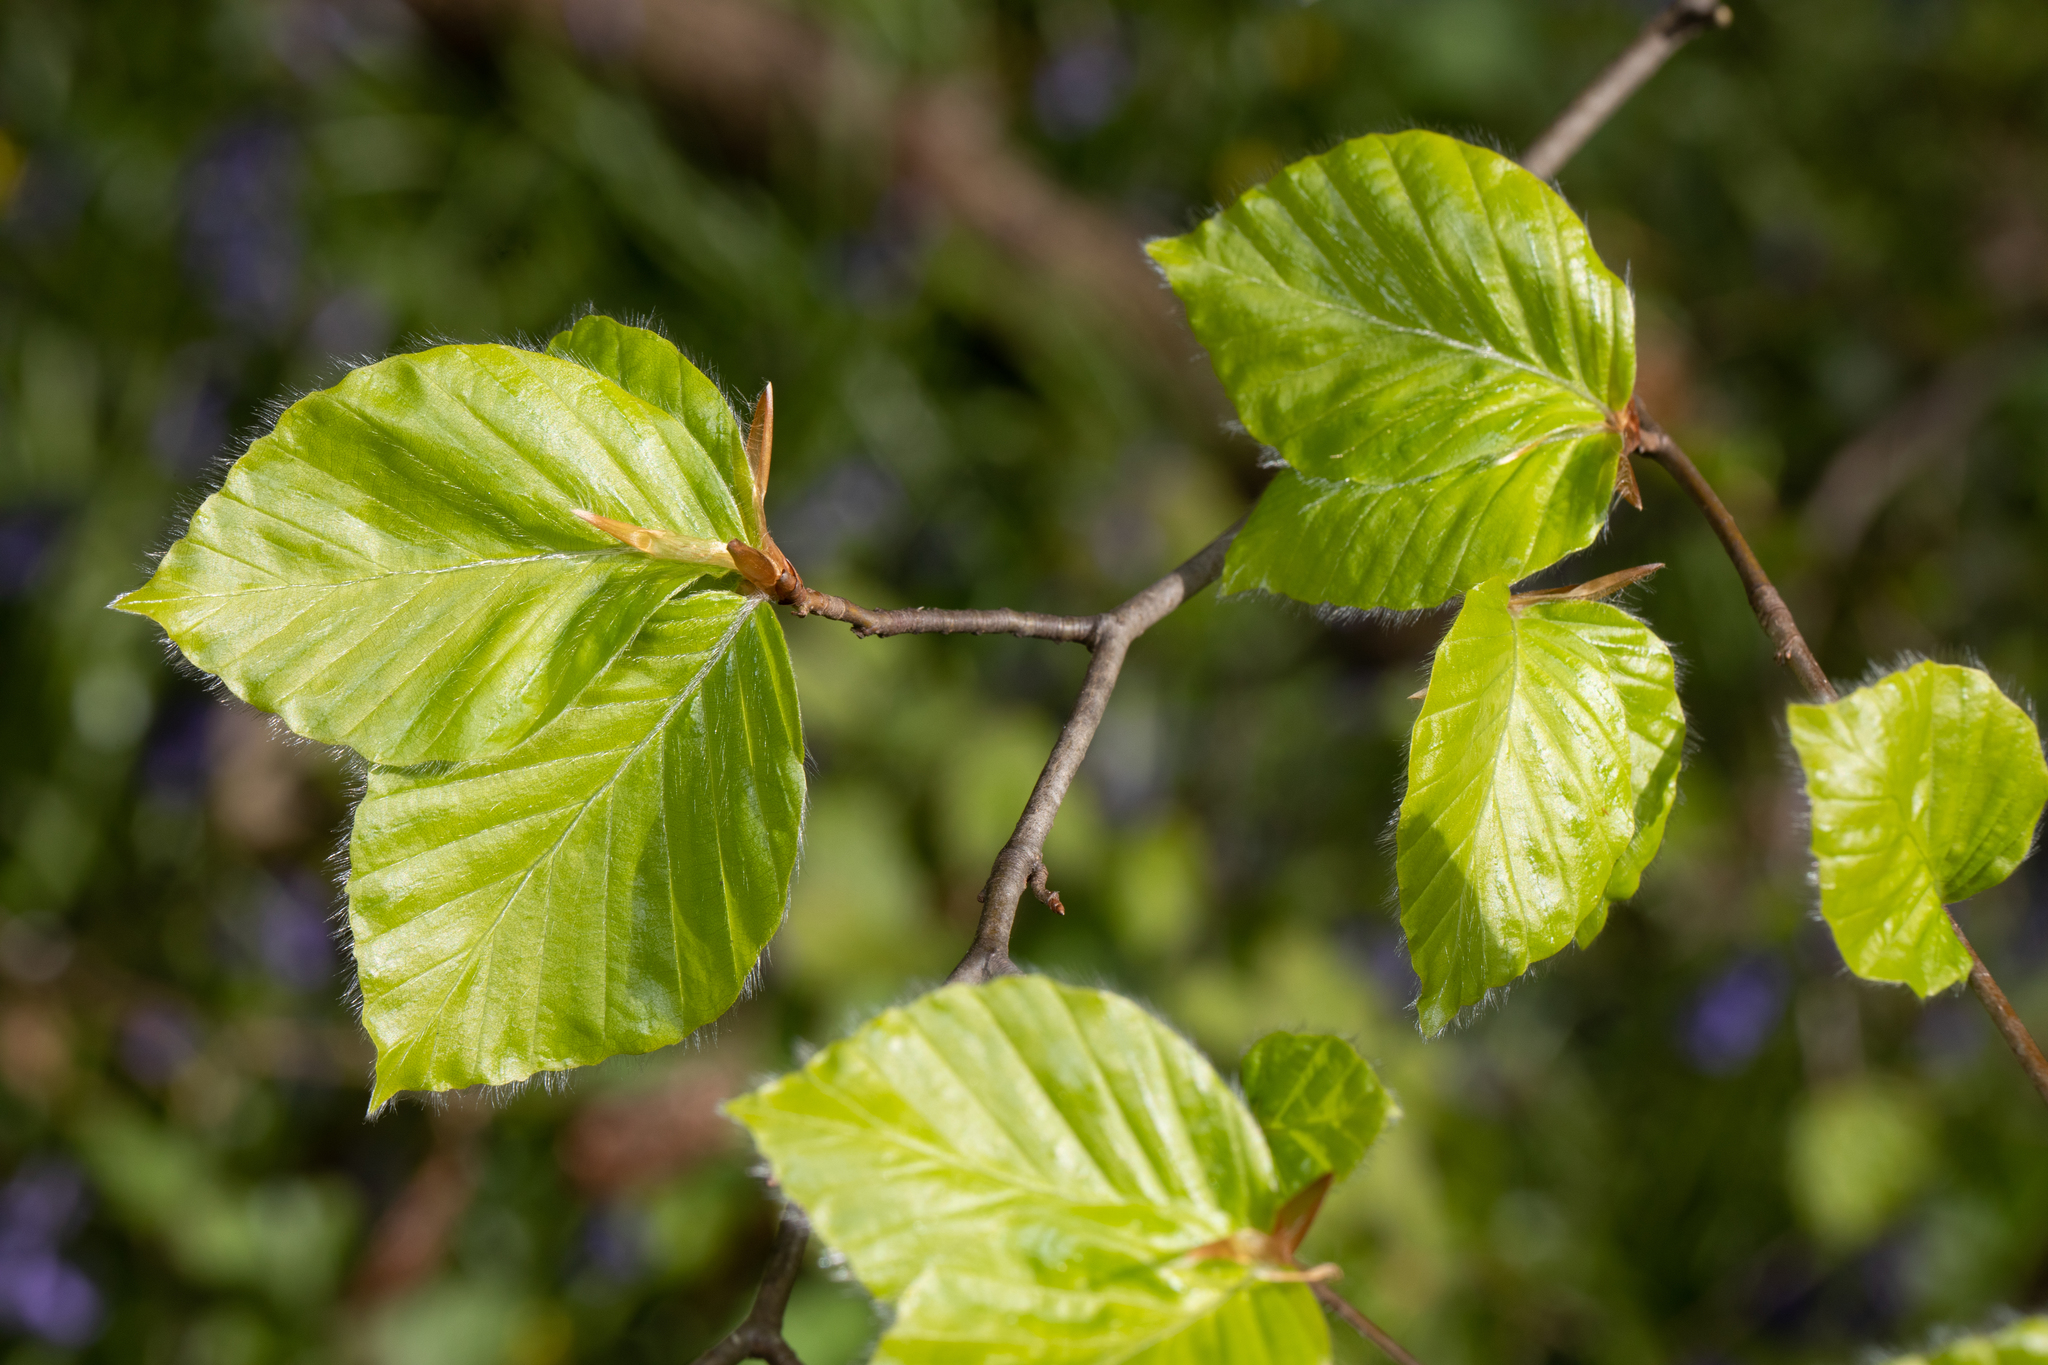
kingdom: Plantae
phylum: Tracheophyta
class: Magnoliopsida
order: Fagales
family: Fagaceae
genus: Fagus
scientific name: Fagus sylvatica
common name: Beech
